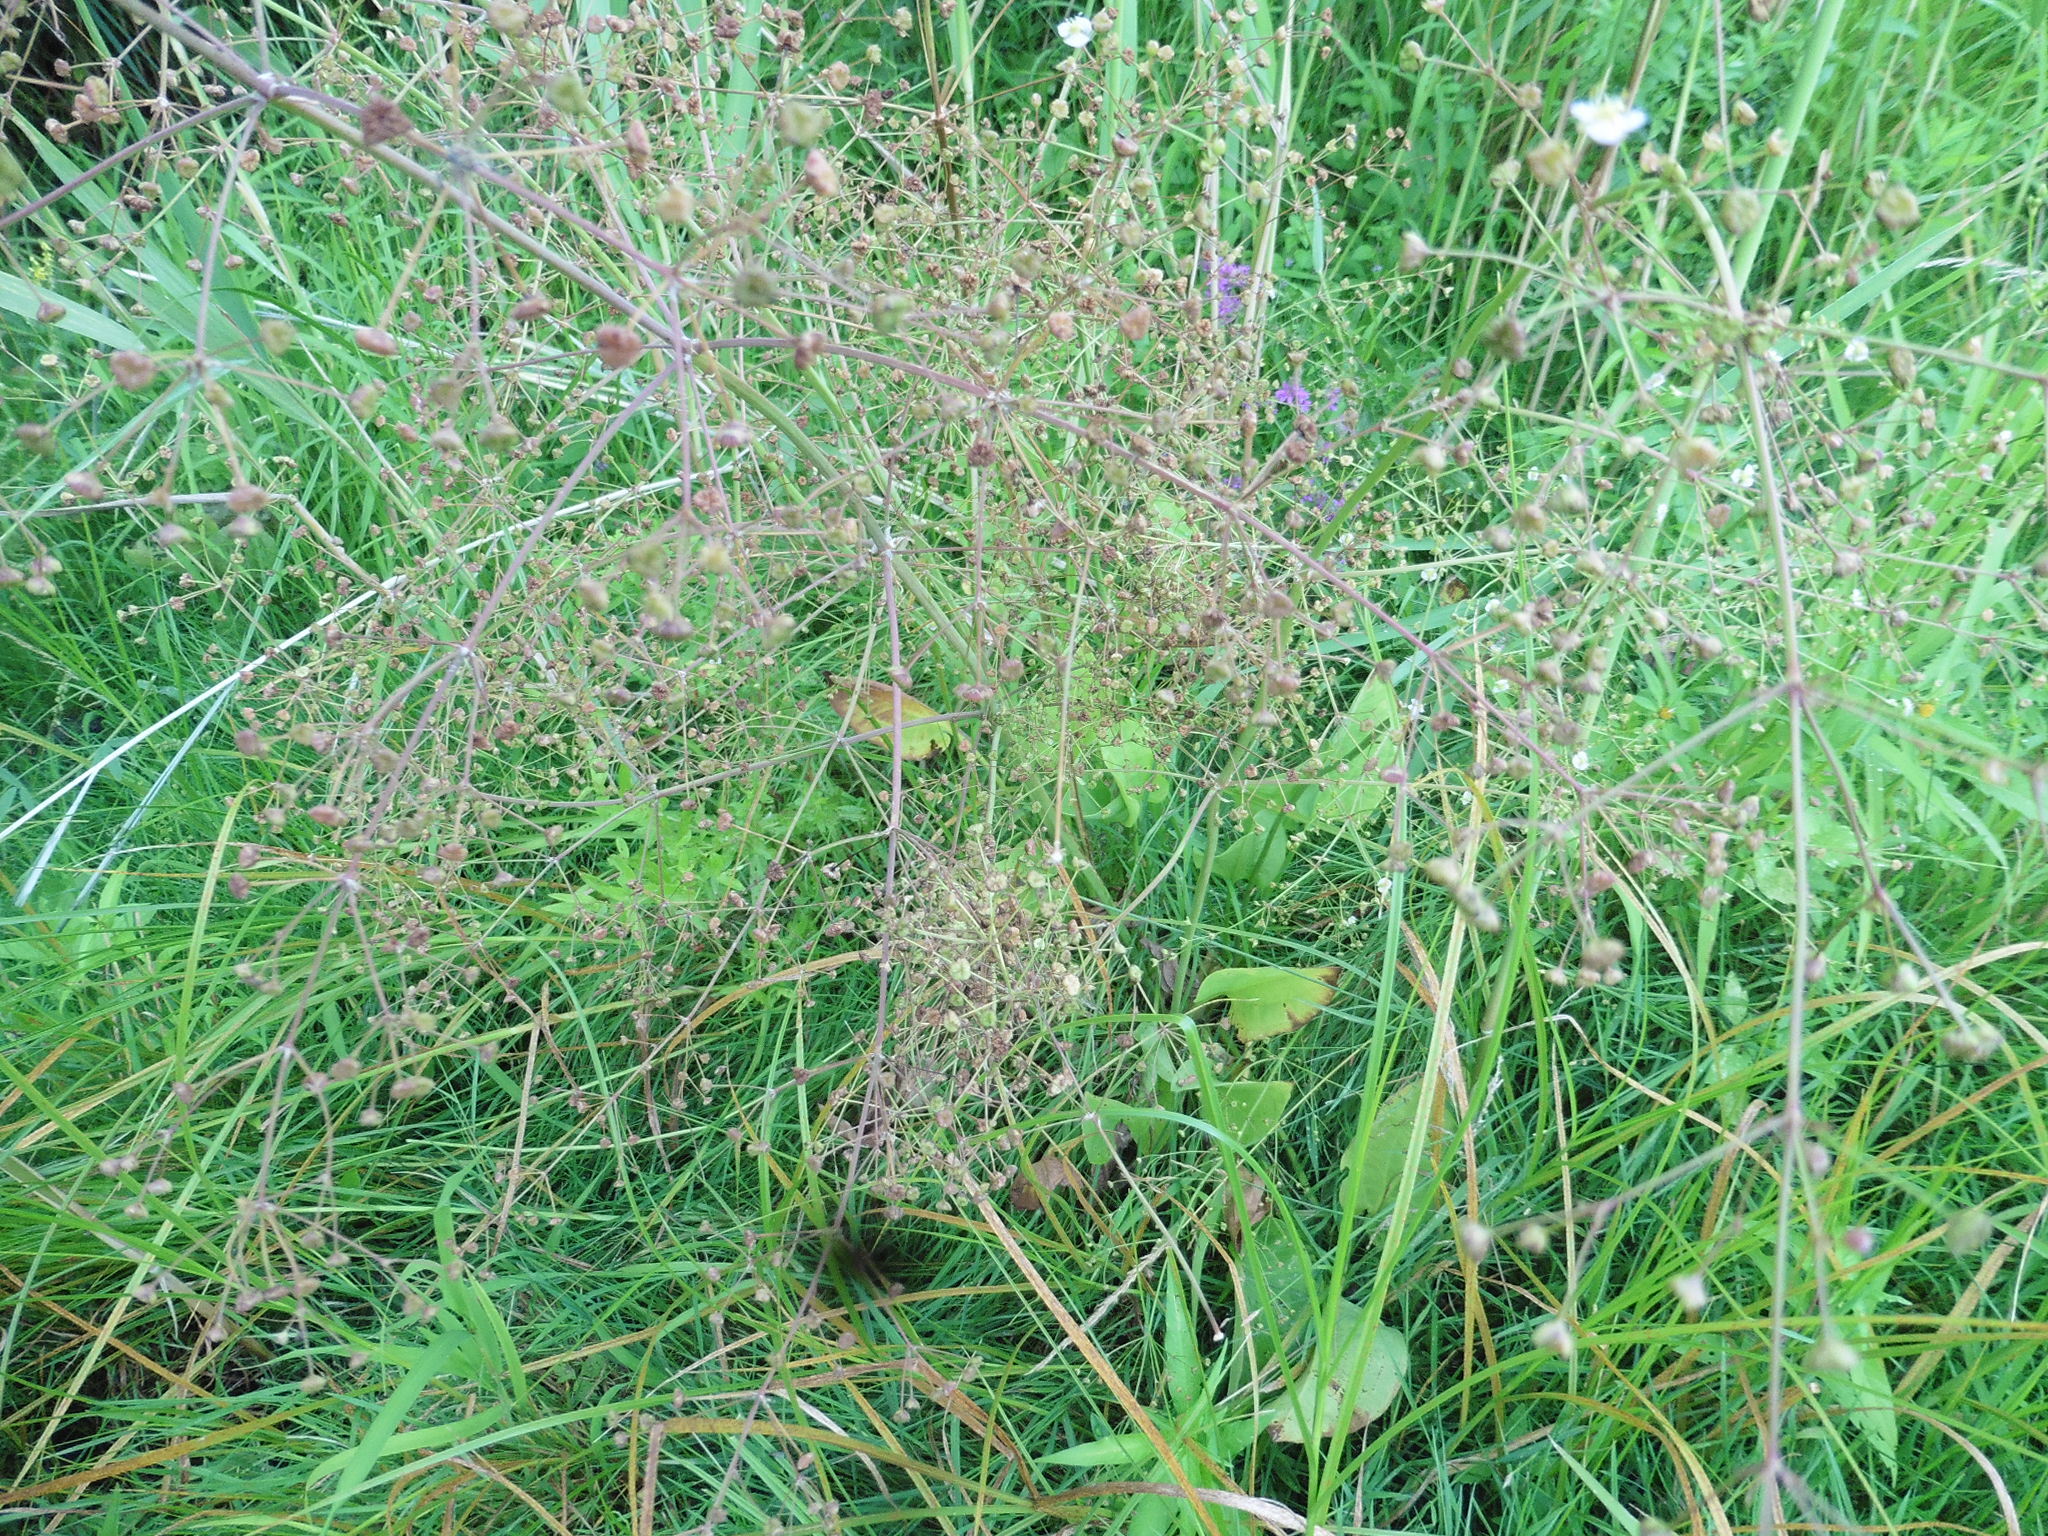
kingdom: Plantae
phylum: Tracheophyta
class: Liliopsida
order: Alismatales
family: Alismataceae
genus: Alisma
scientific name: Alisma plantago-aquatica
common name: Water-plantain
